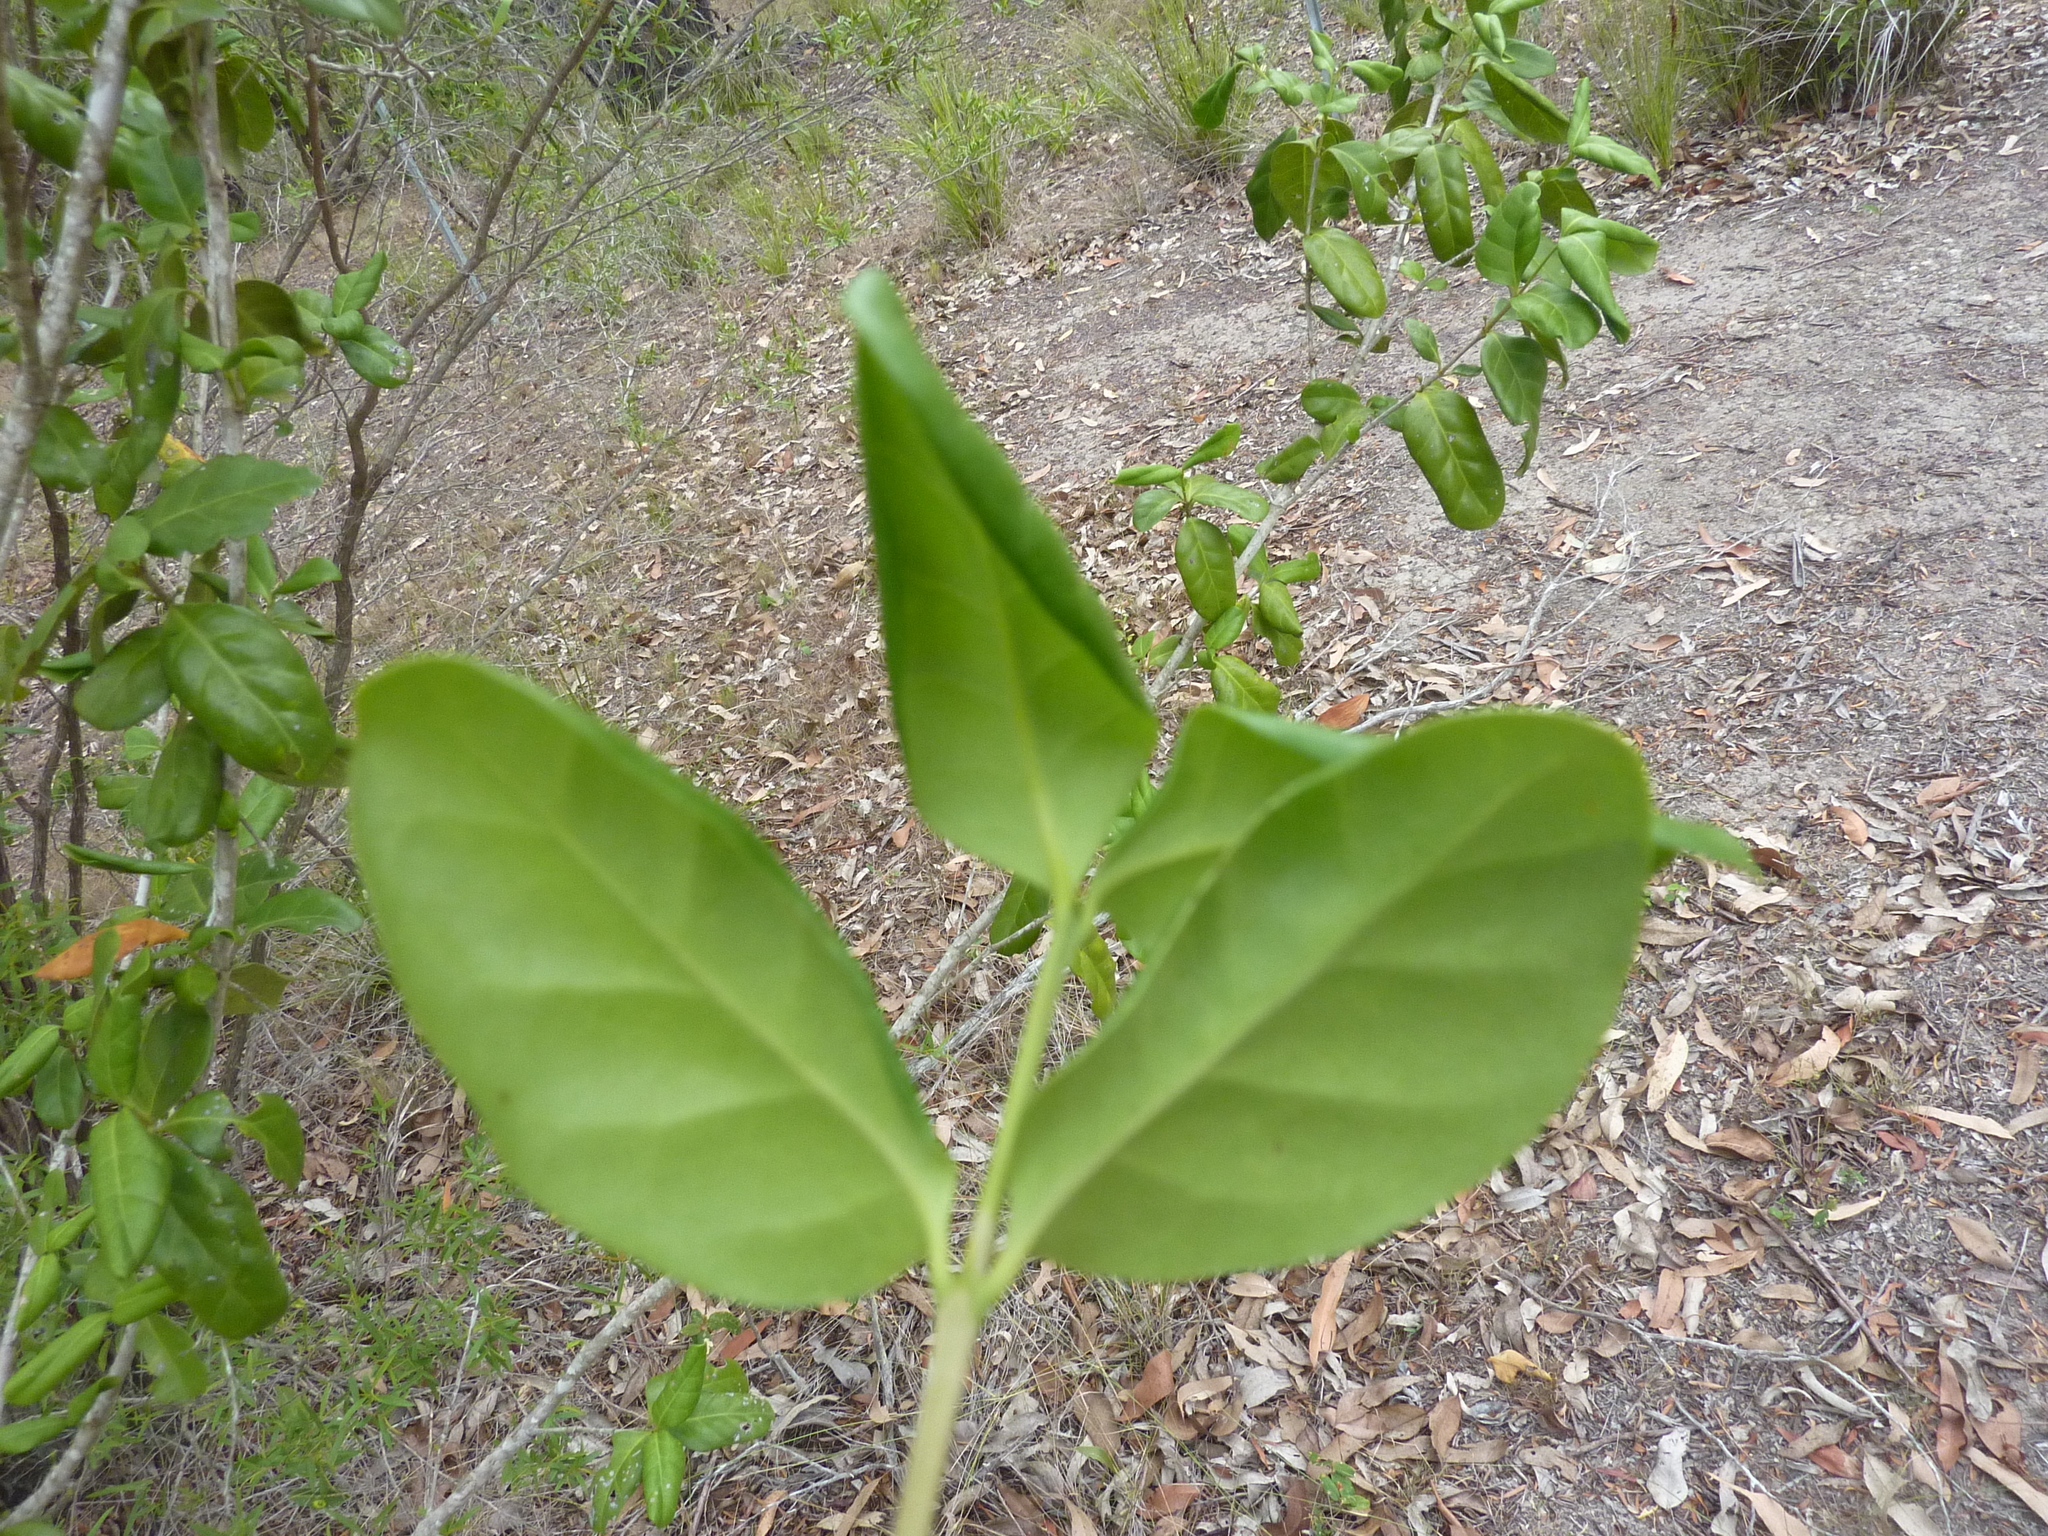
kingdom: Plantae
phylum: Tracheophyta
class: Magnoliopsida
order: Gentianales
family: Rubiaceae
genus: Cyclophyllum
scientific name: Cyclophyllum coprosmoides
